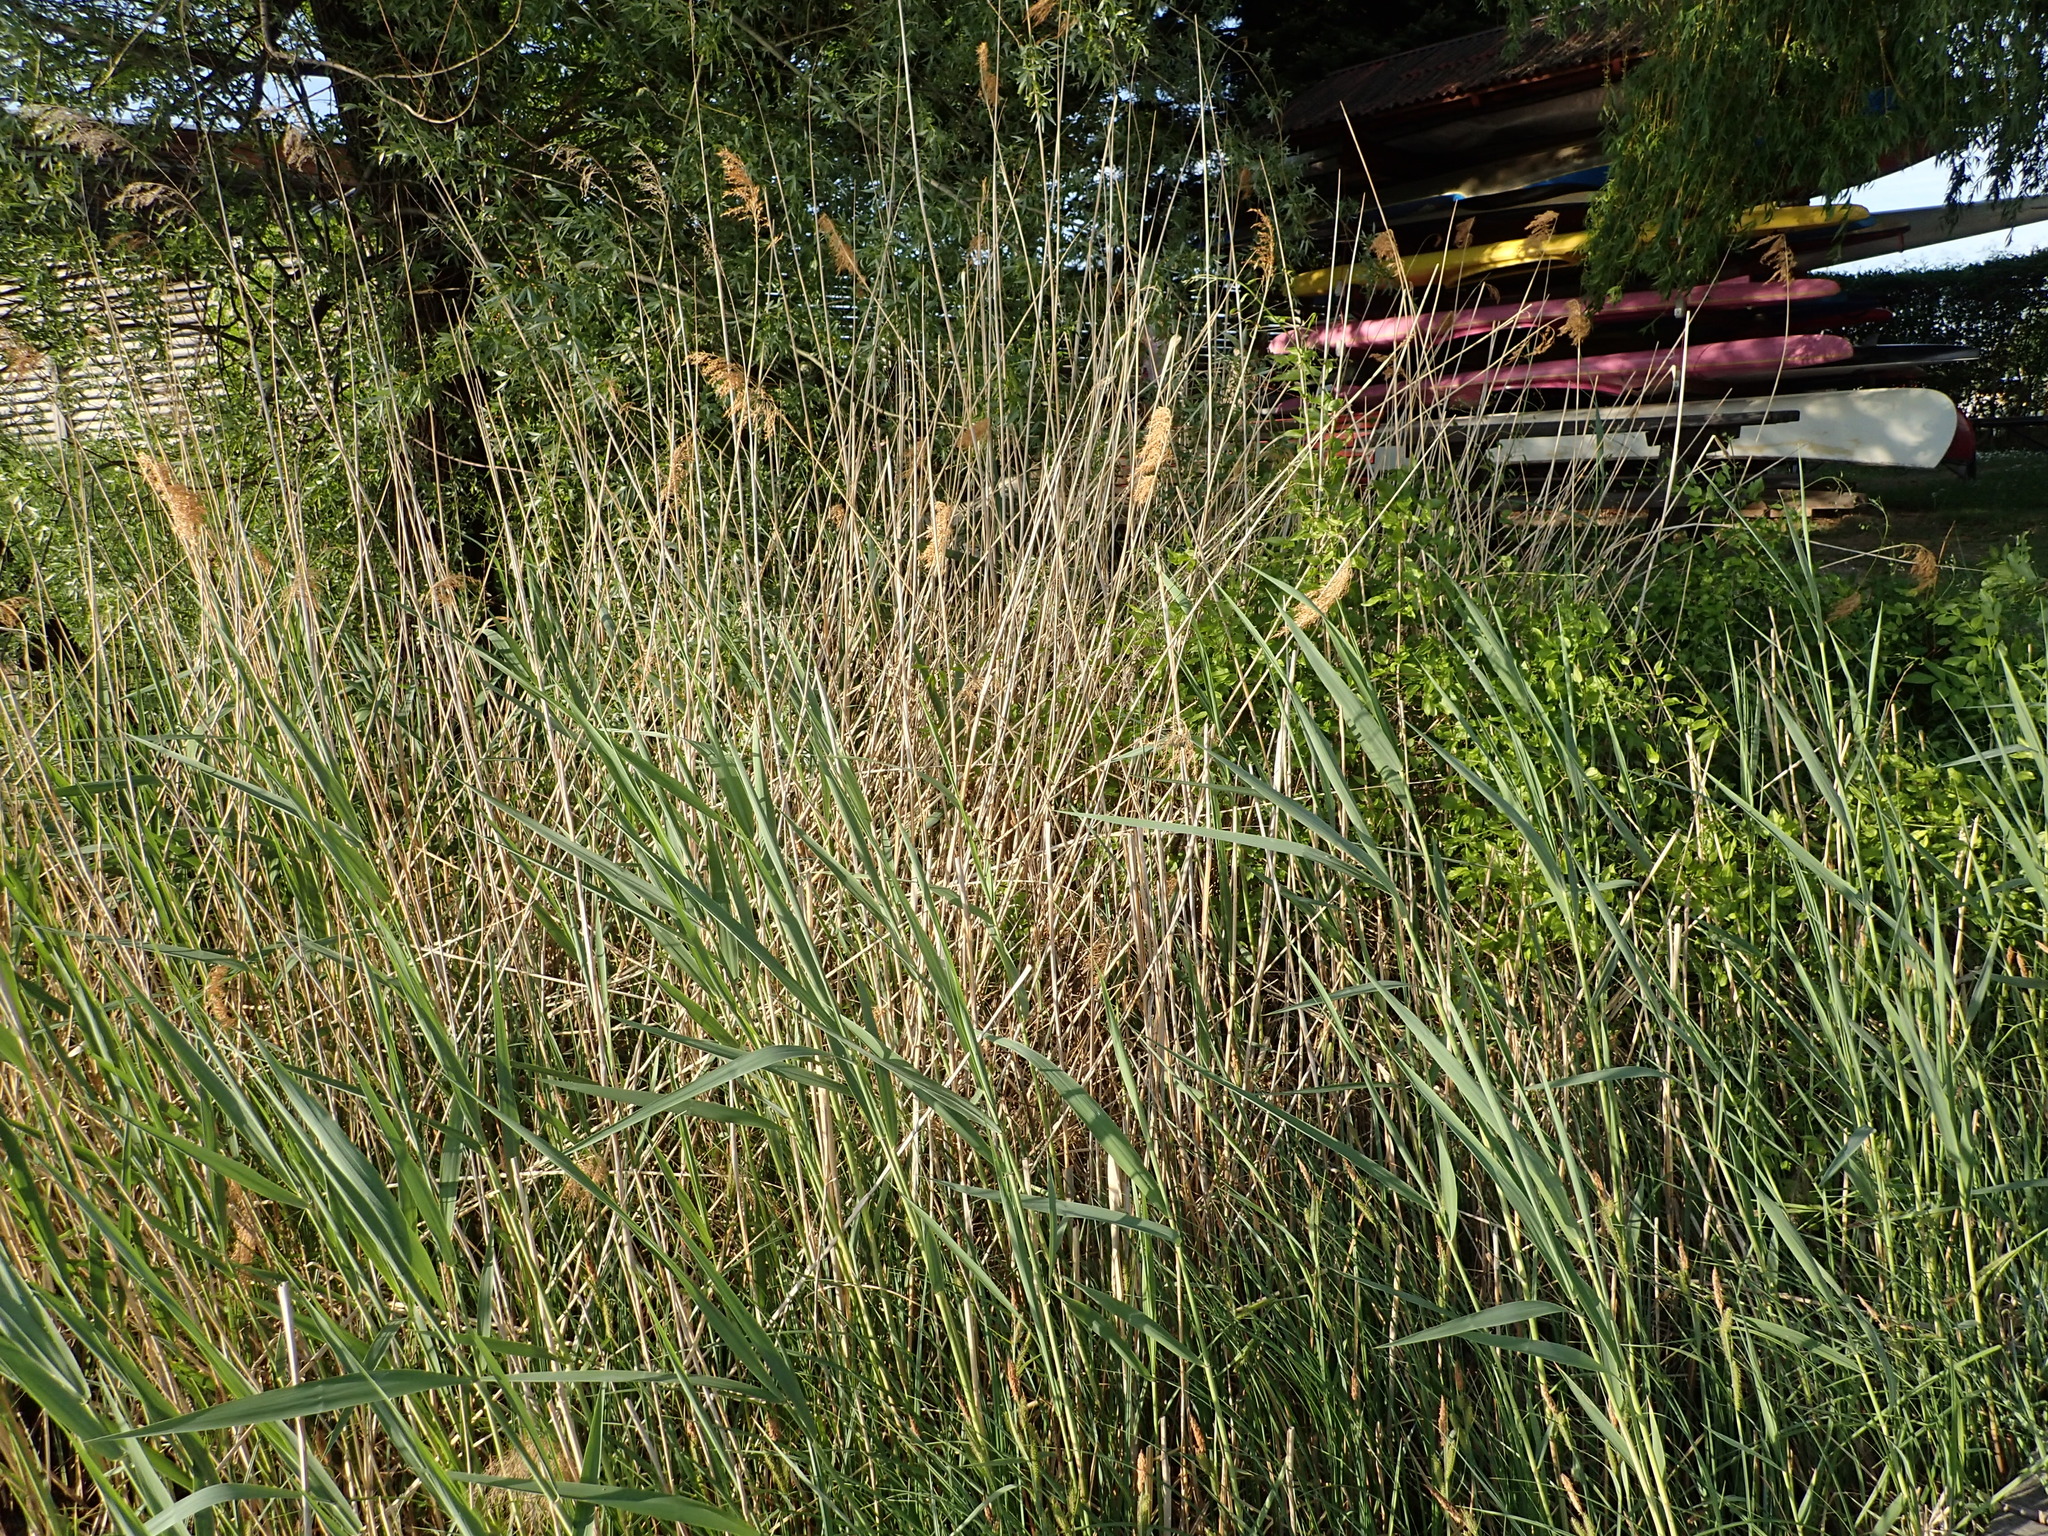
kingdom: Plantae
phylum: Tracheophyta
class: Liliopsida
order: Poales
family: Poaceae
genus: Phragmites
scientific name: Phragmites australis
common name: Common reed
